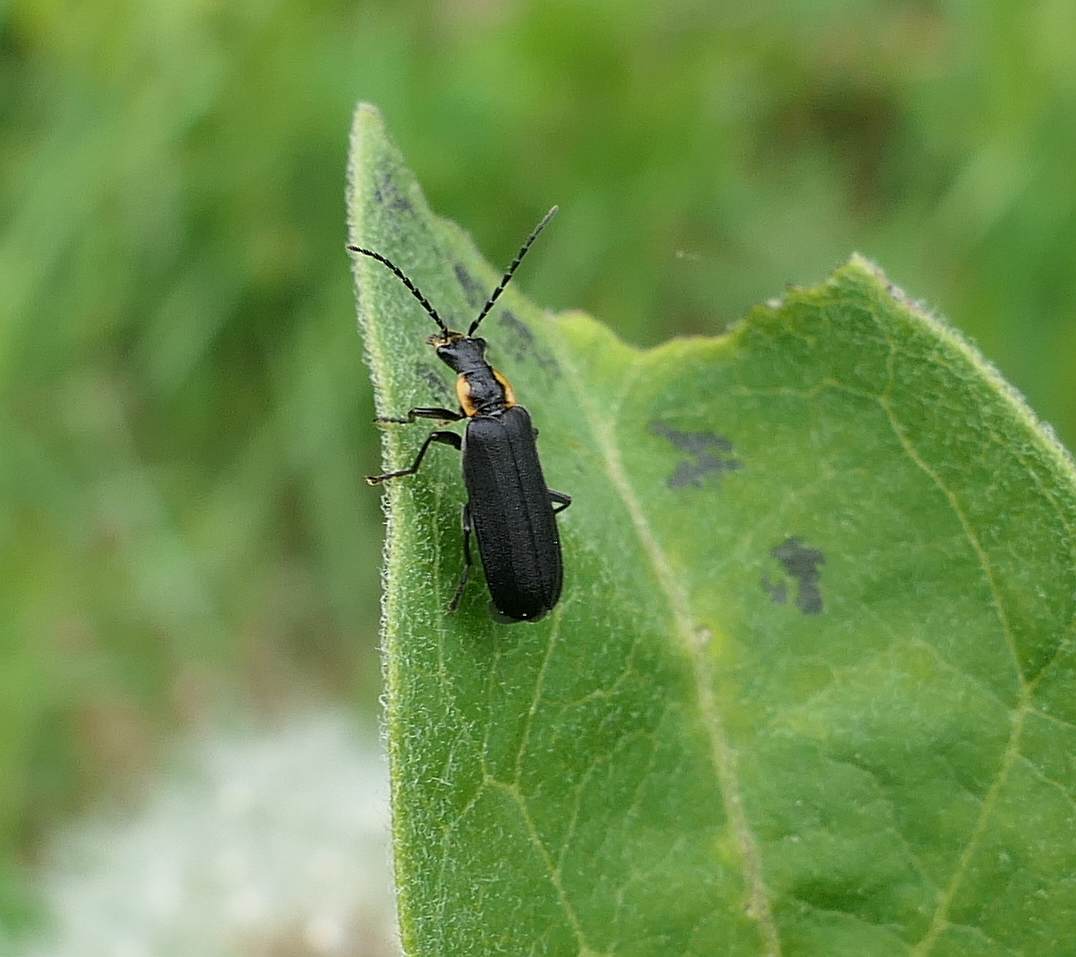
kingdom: Animalia
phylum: Arthropoda
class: Insecta
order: Coleoptera
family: Cantharidae
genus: Podabrus
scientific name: Podabrus rugosulus
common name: Wrinkled soldier beetle
